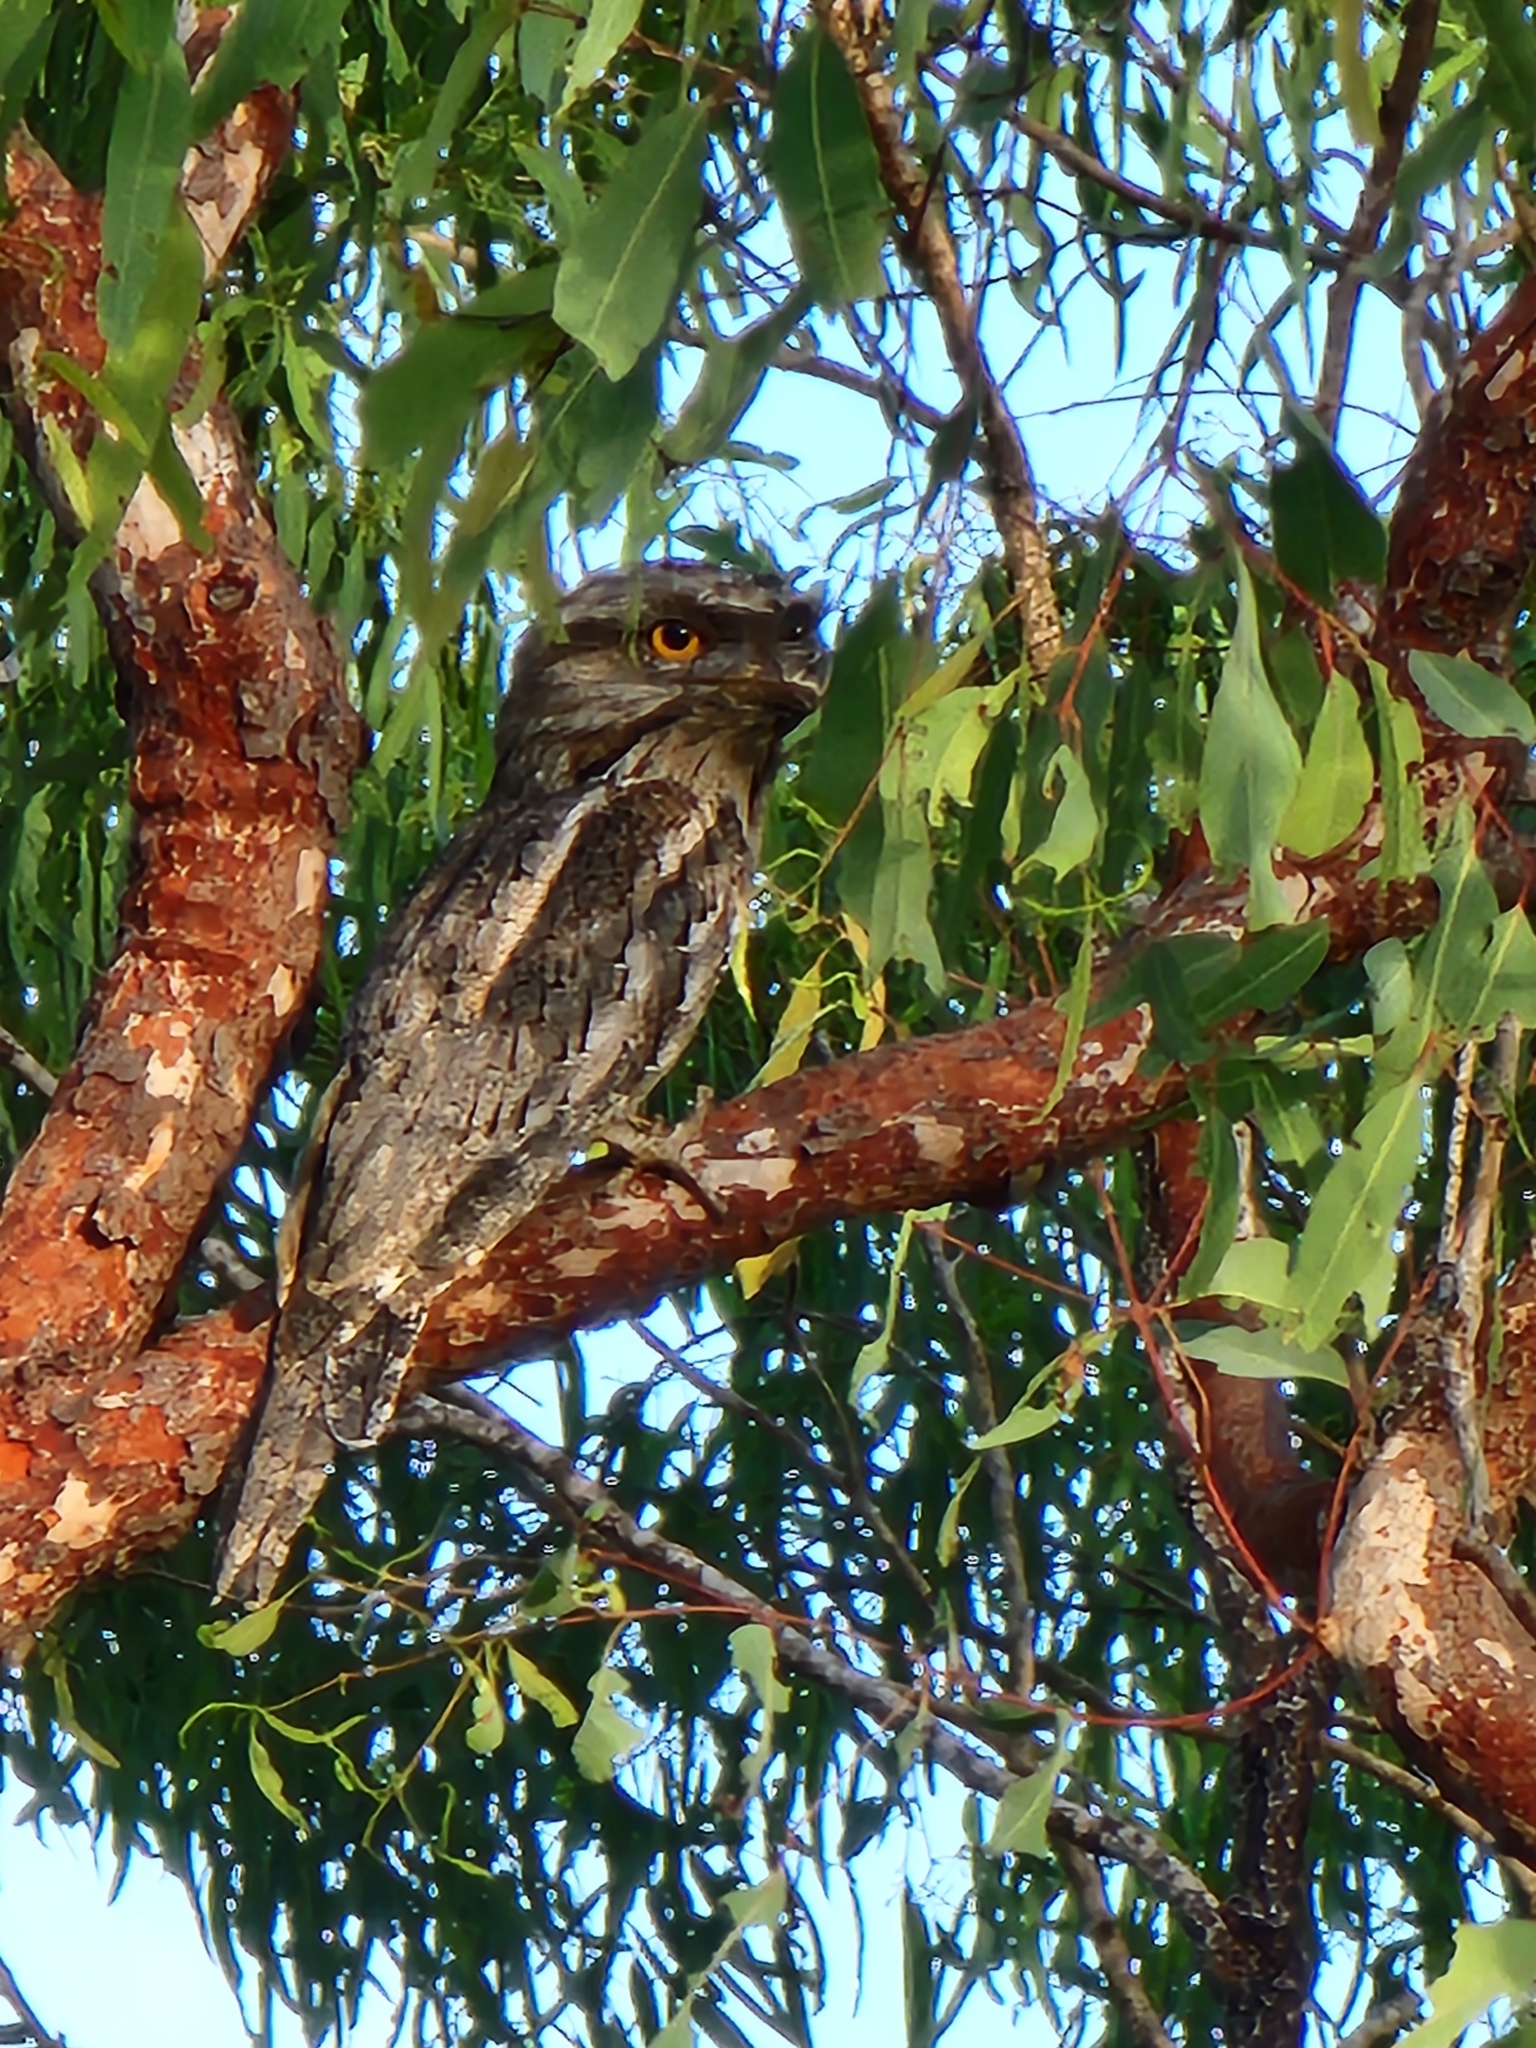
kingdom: Animalia
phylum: Chordata
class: Aves
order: Caprimulgiformes
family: Podargidae
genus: Podargus
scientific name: Podargus strigoides
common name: Tawny frogmouth
